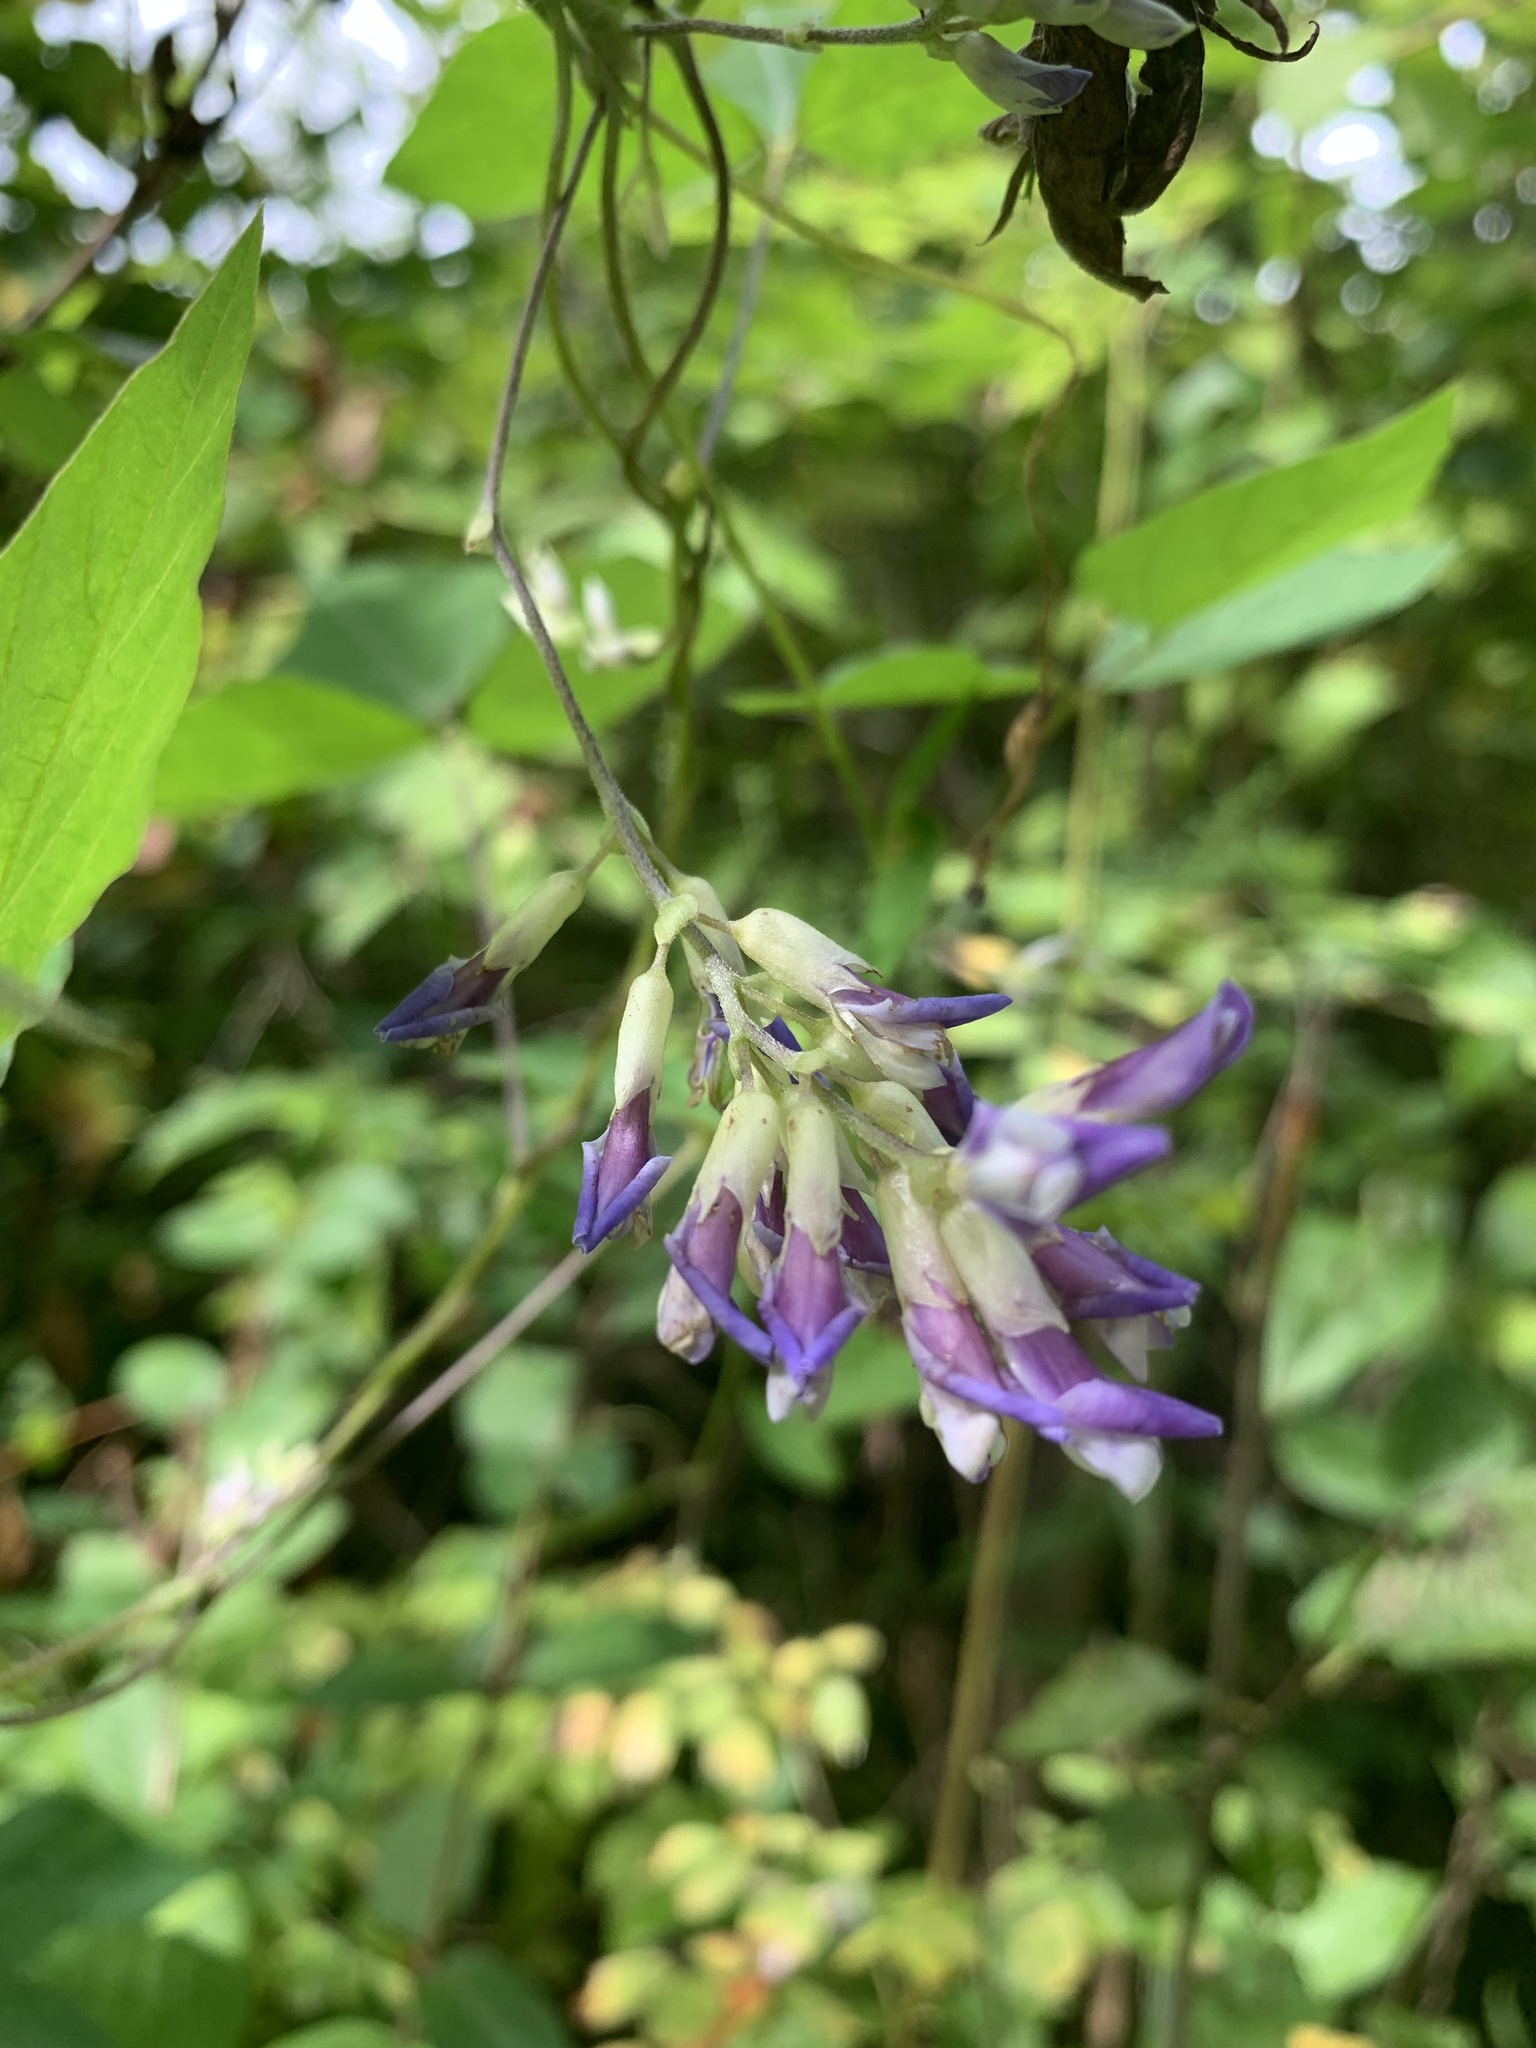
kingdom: Plantae
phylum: Tracheophyta
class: Magnoliopsida
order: Fabales
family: Fabaceae
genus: Amphicarpaea
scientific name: Amphicarpaea bracteata
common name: American hog peanut
